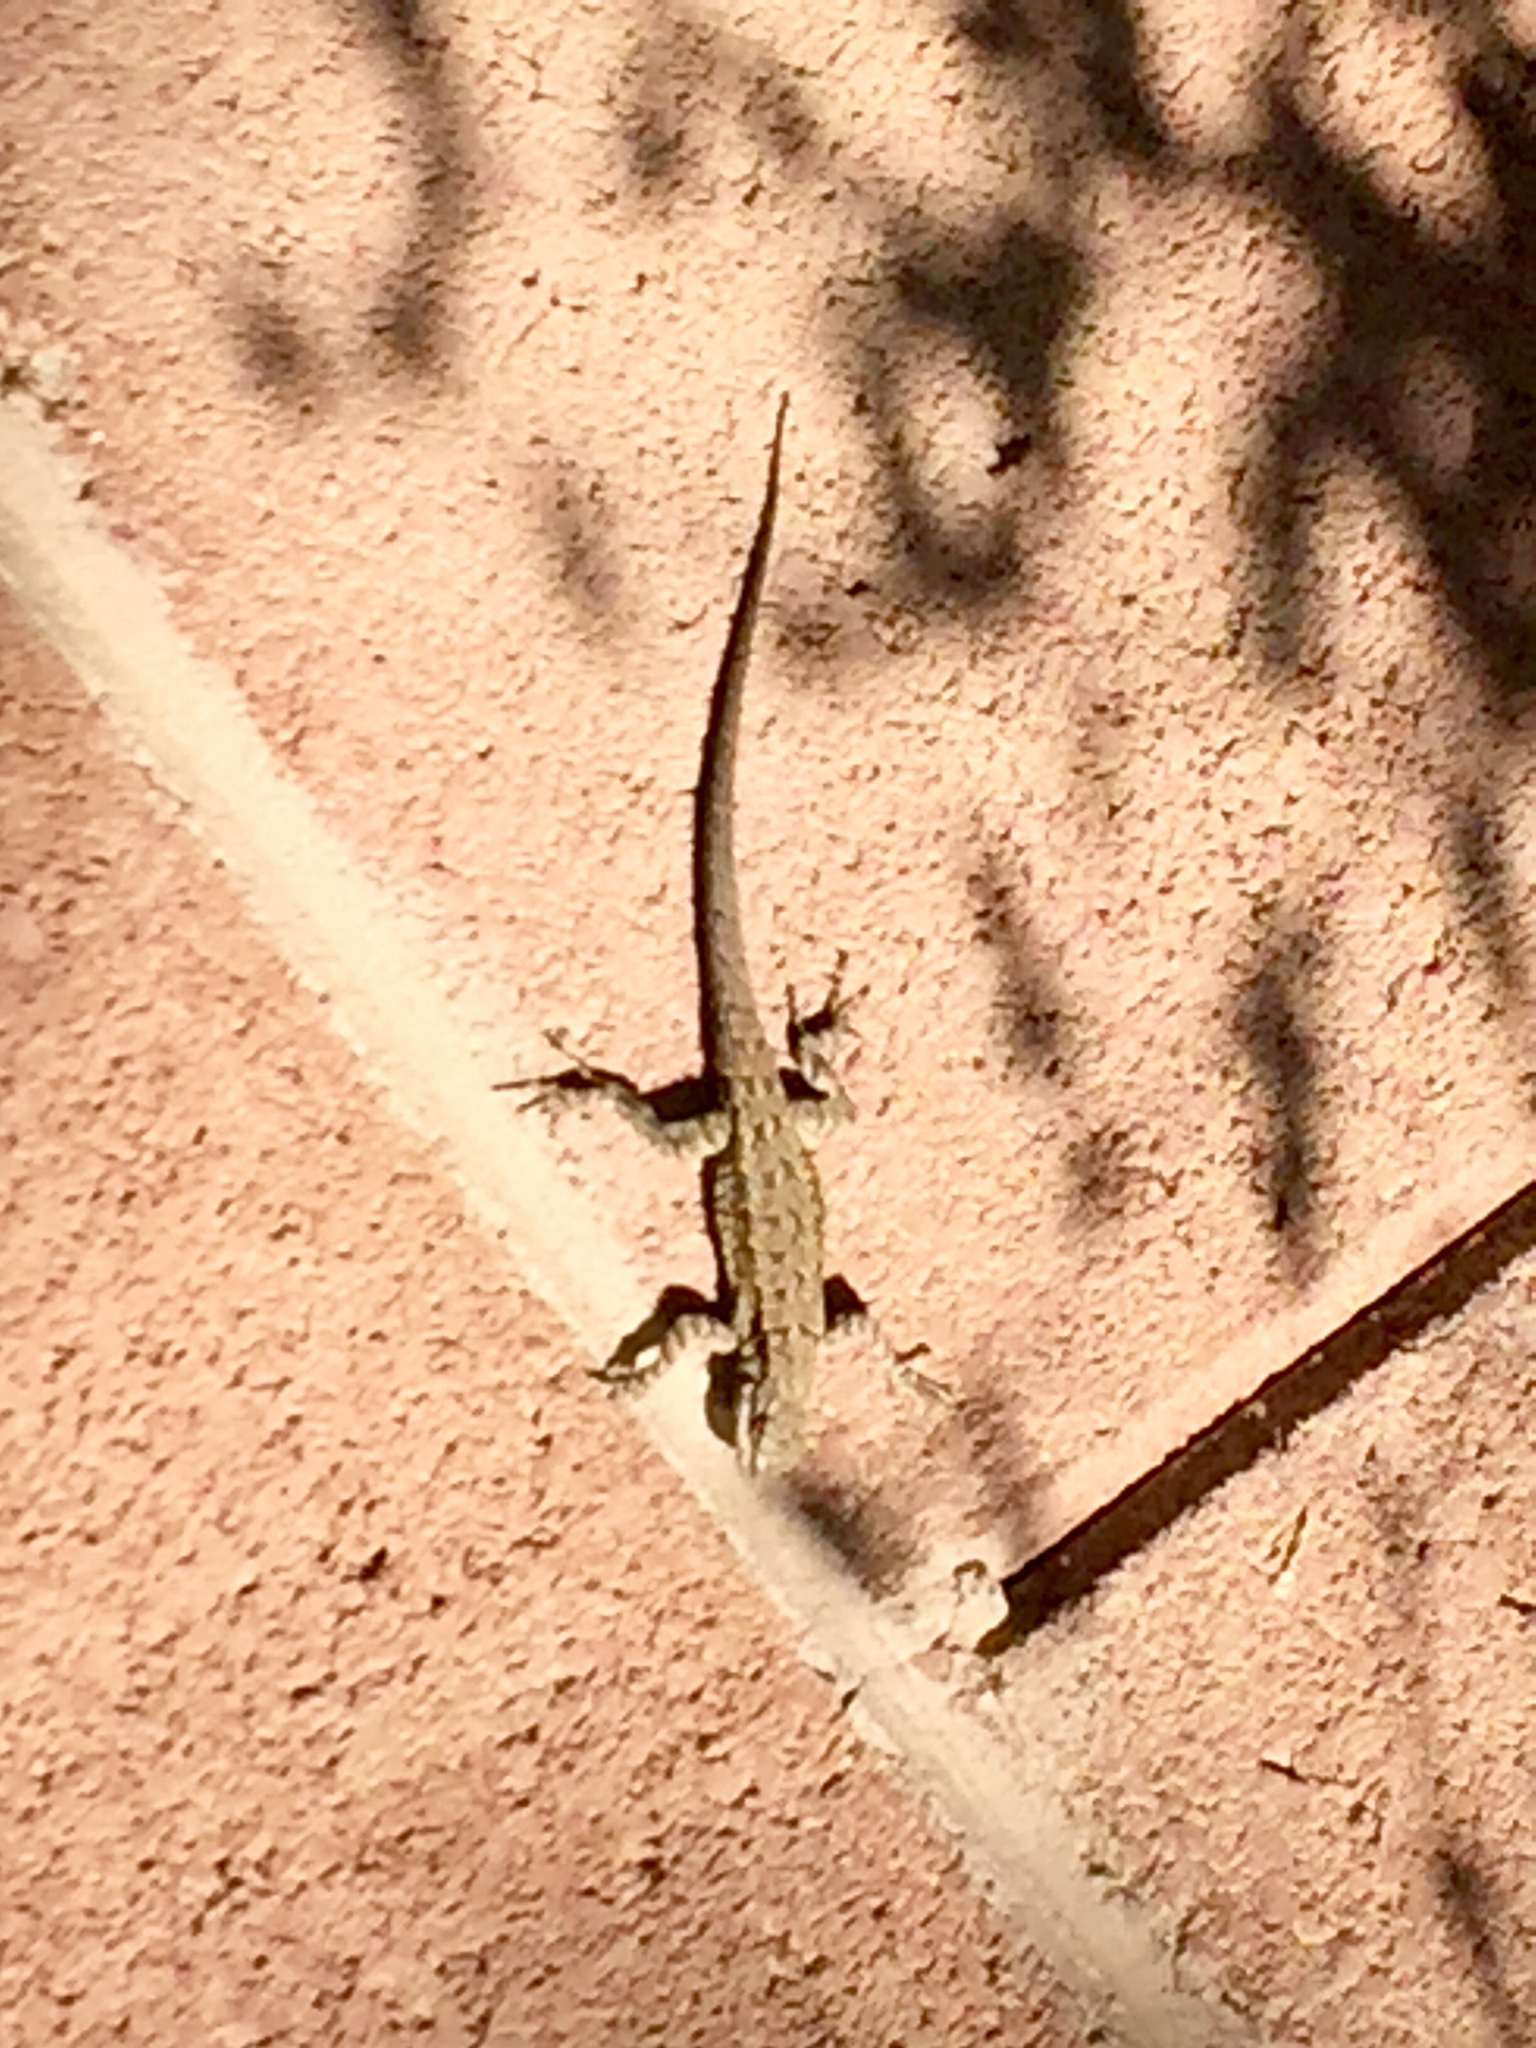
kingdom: Animalia
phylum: Chordata
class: Squamata
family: Phrynosomatidae
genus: Urosaurus
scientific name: Urosaurus ornatus
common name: Ornate tree lizard
